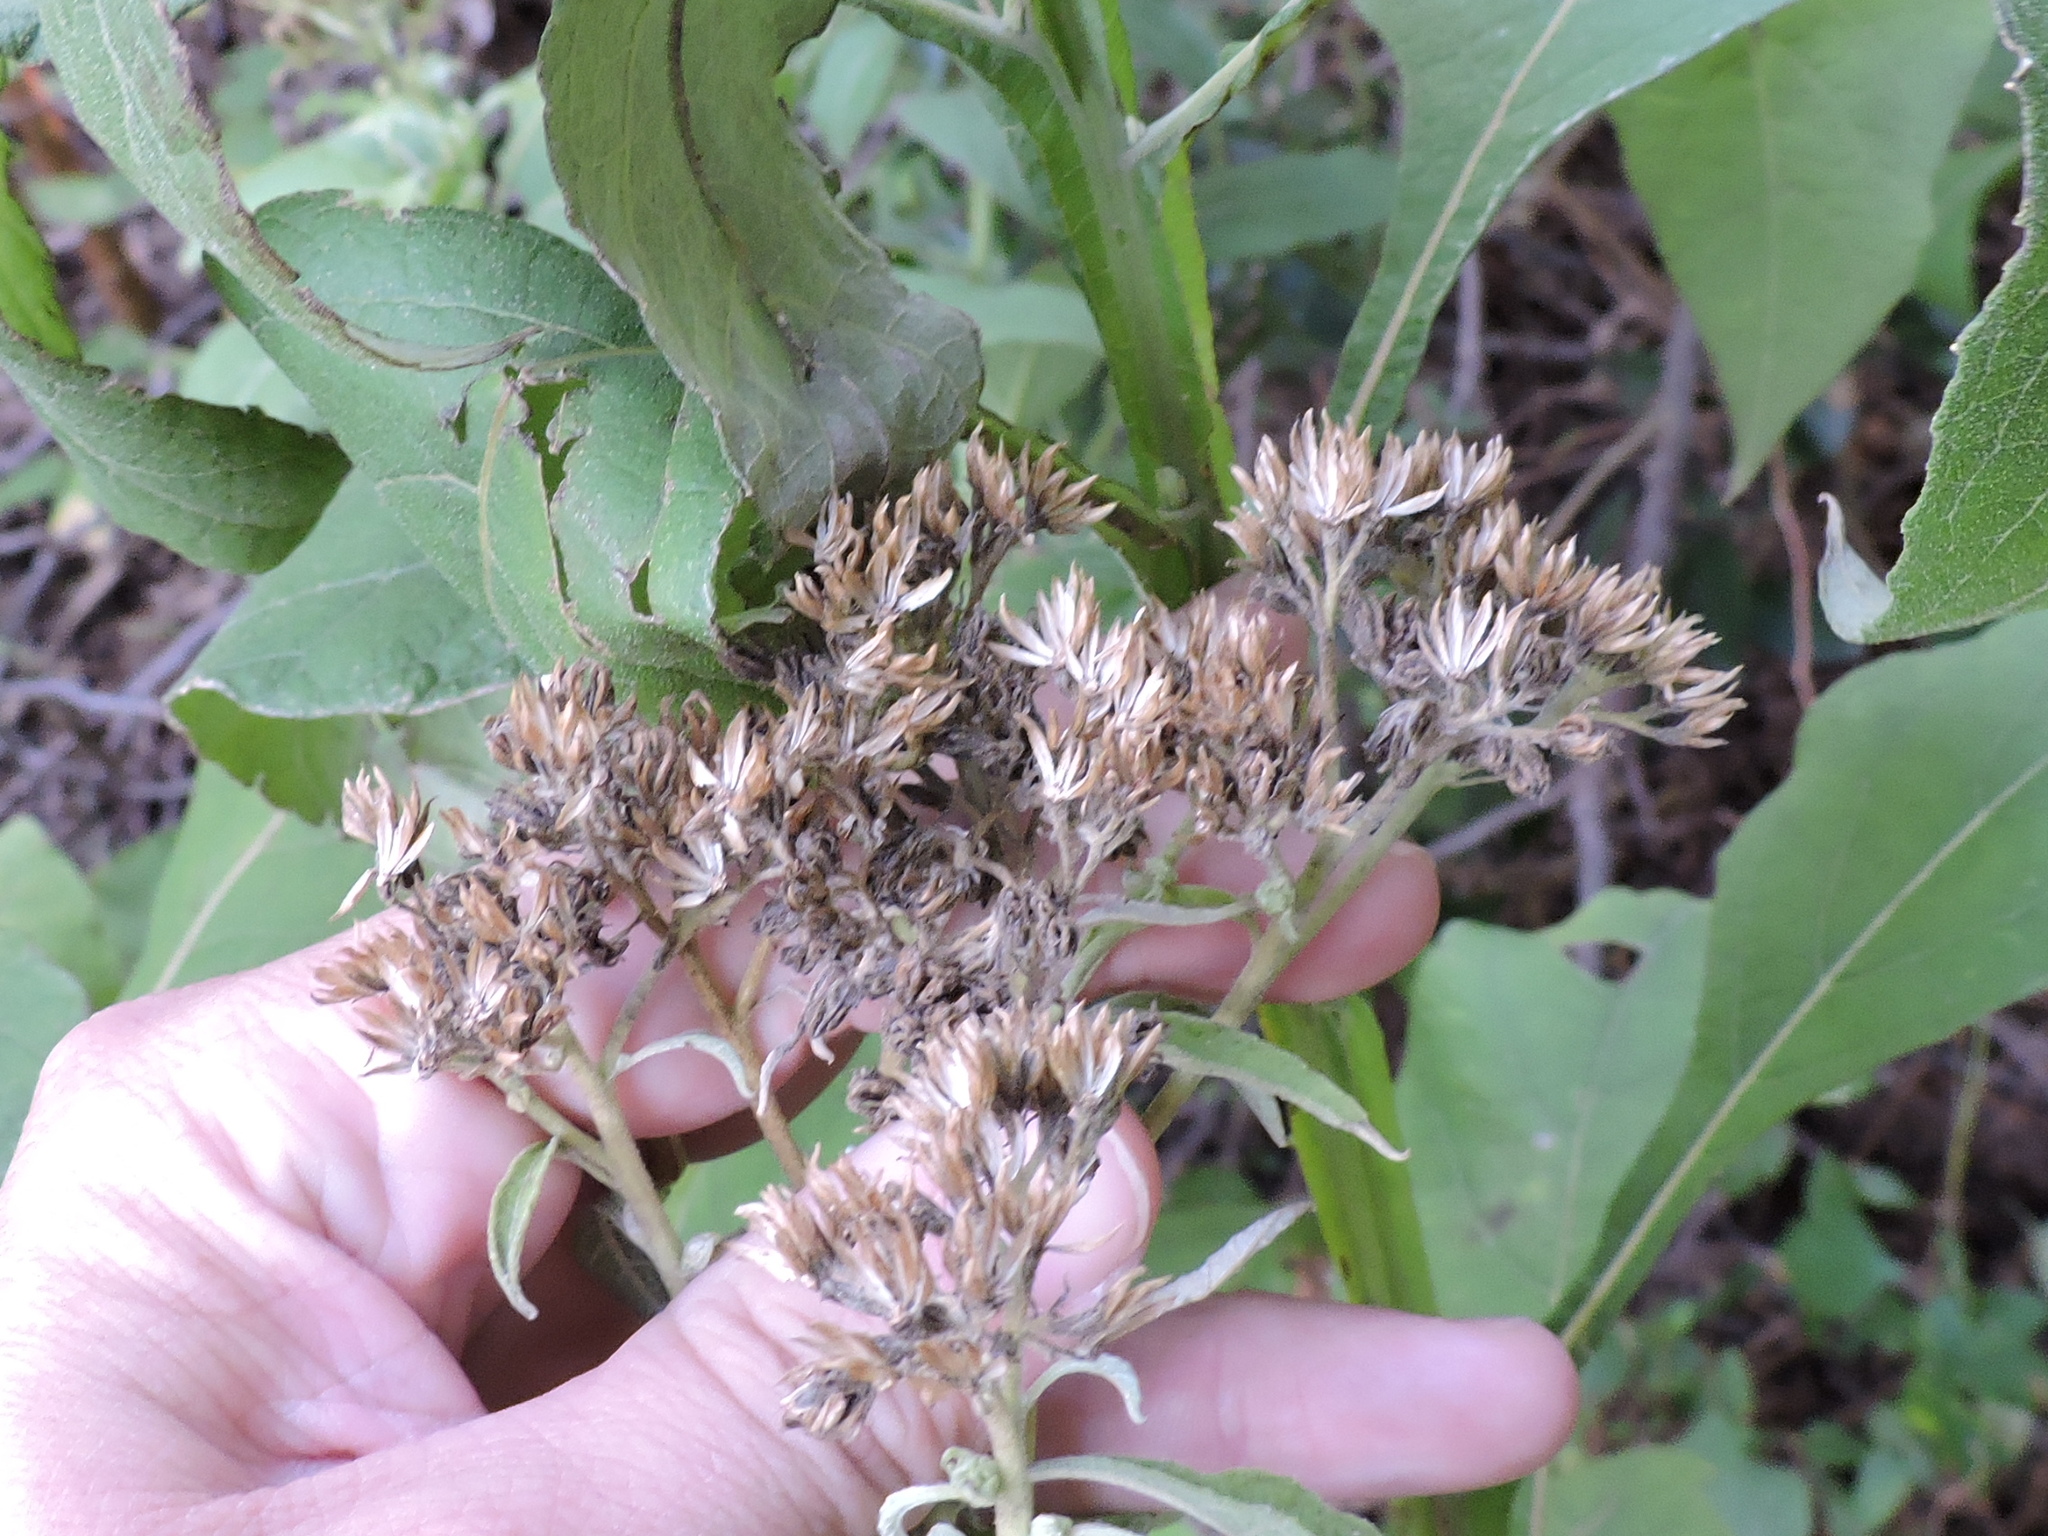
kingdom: Plantae
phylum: Tracheophyta
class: Magnoliopsida
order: Asterales
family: Asteraceae
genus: Verbesina
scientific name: Verbesina virginica
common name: Frostweed
